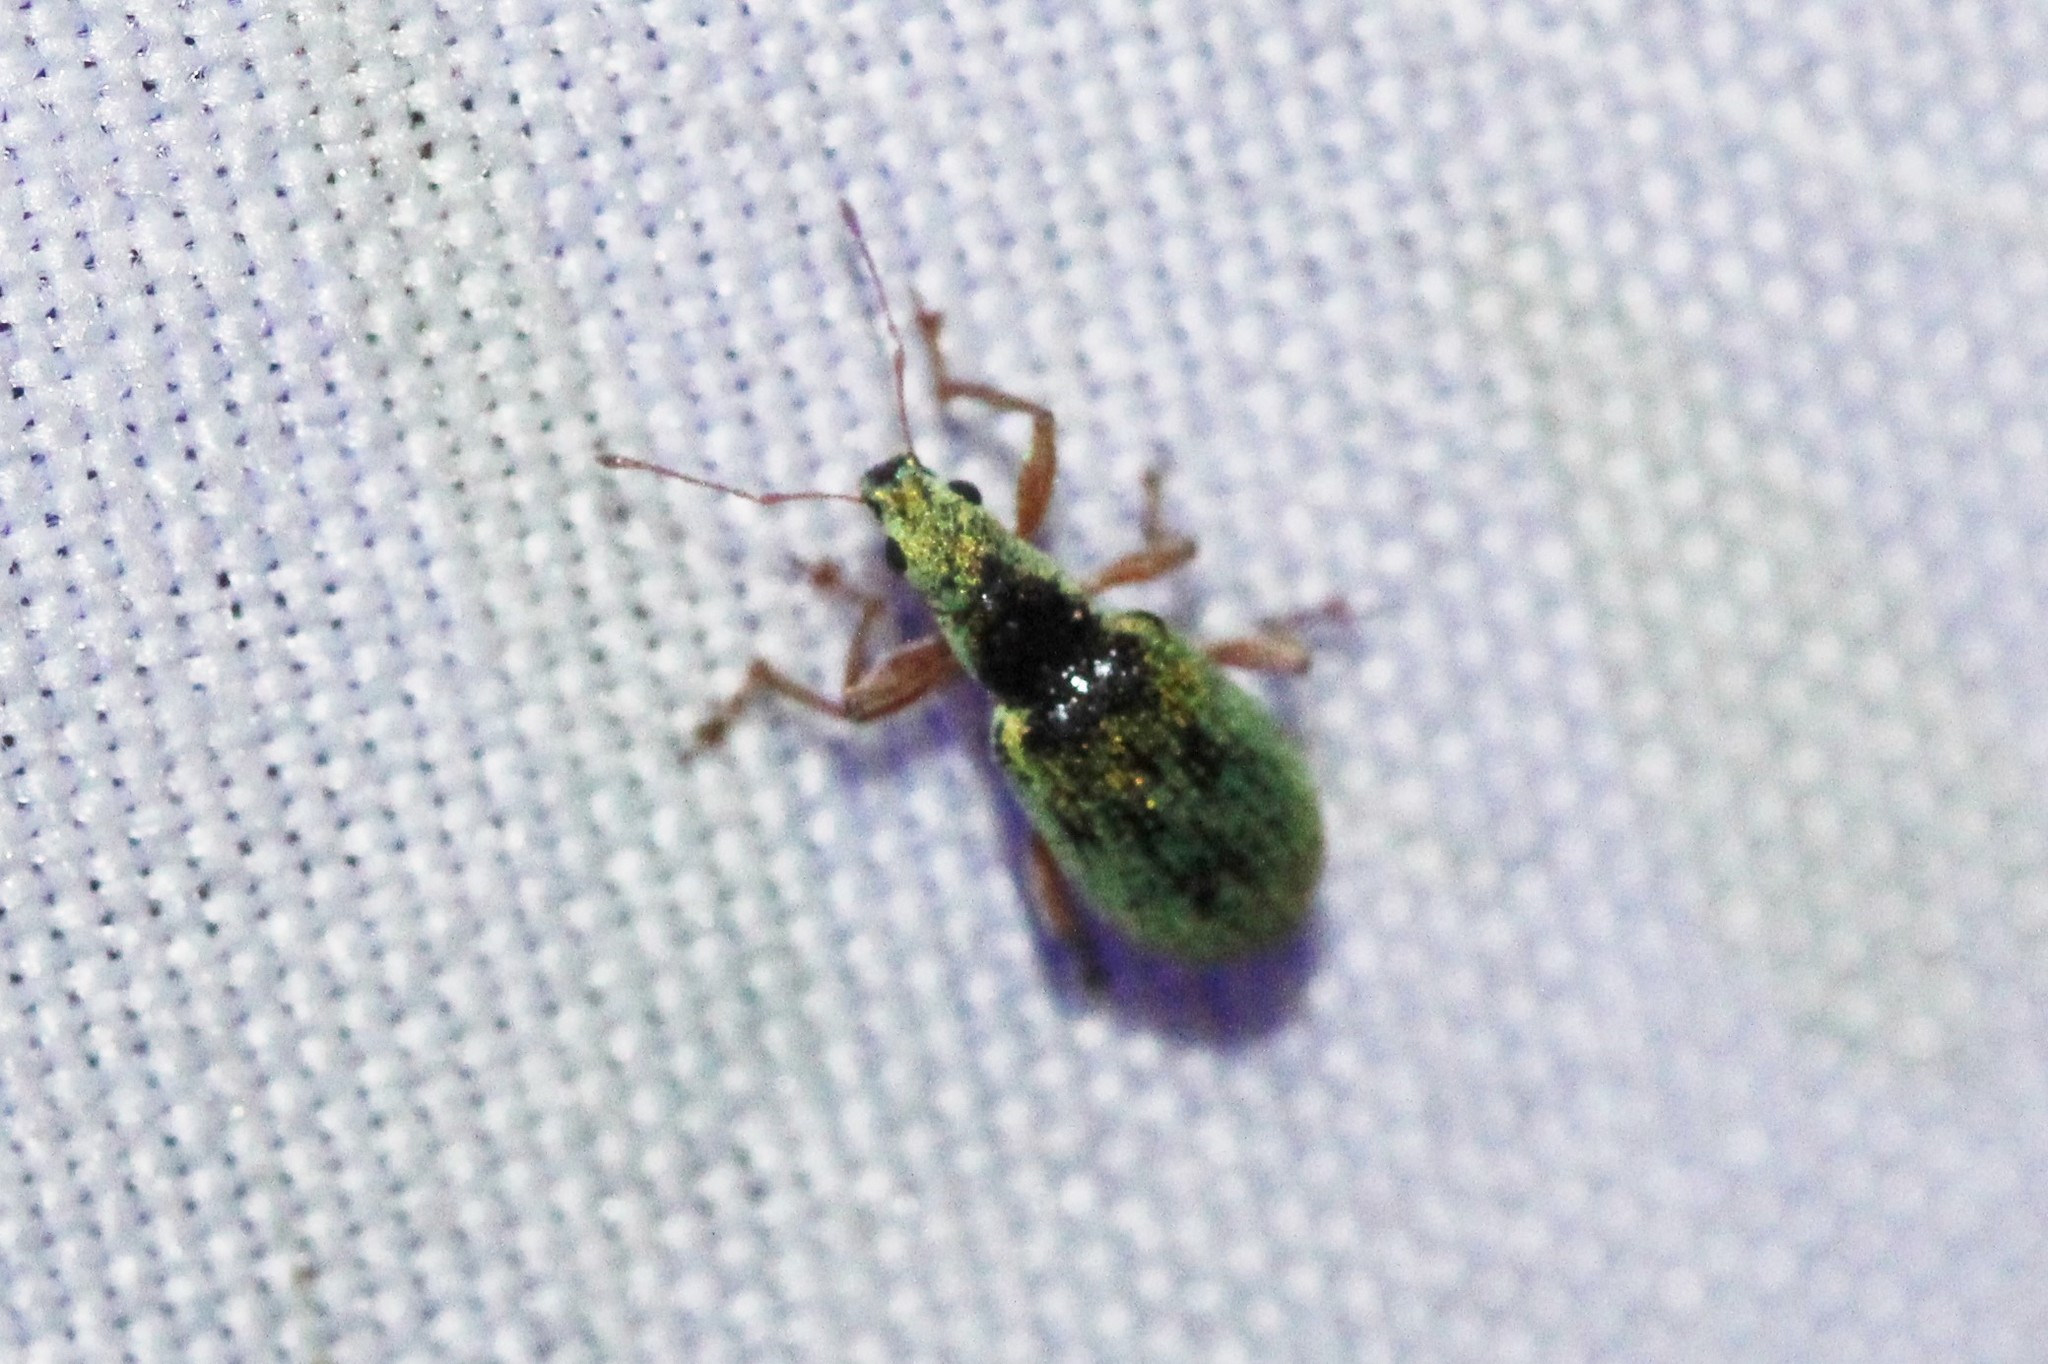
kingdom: Animalia
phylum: Arthropoda
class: Insecta
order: Coleoptera
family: Curculionidae
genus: Polydrusus
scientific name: Polydrusus impressifrons
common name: Weevil
